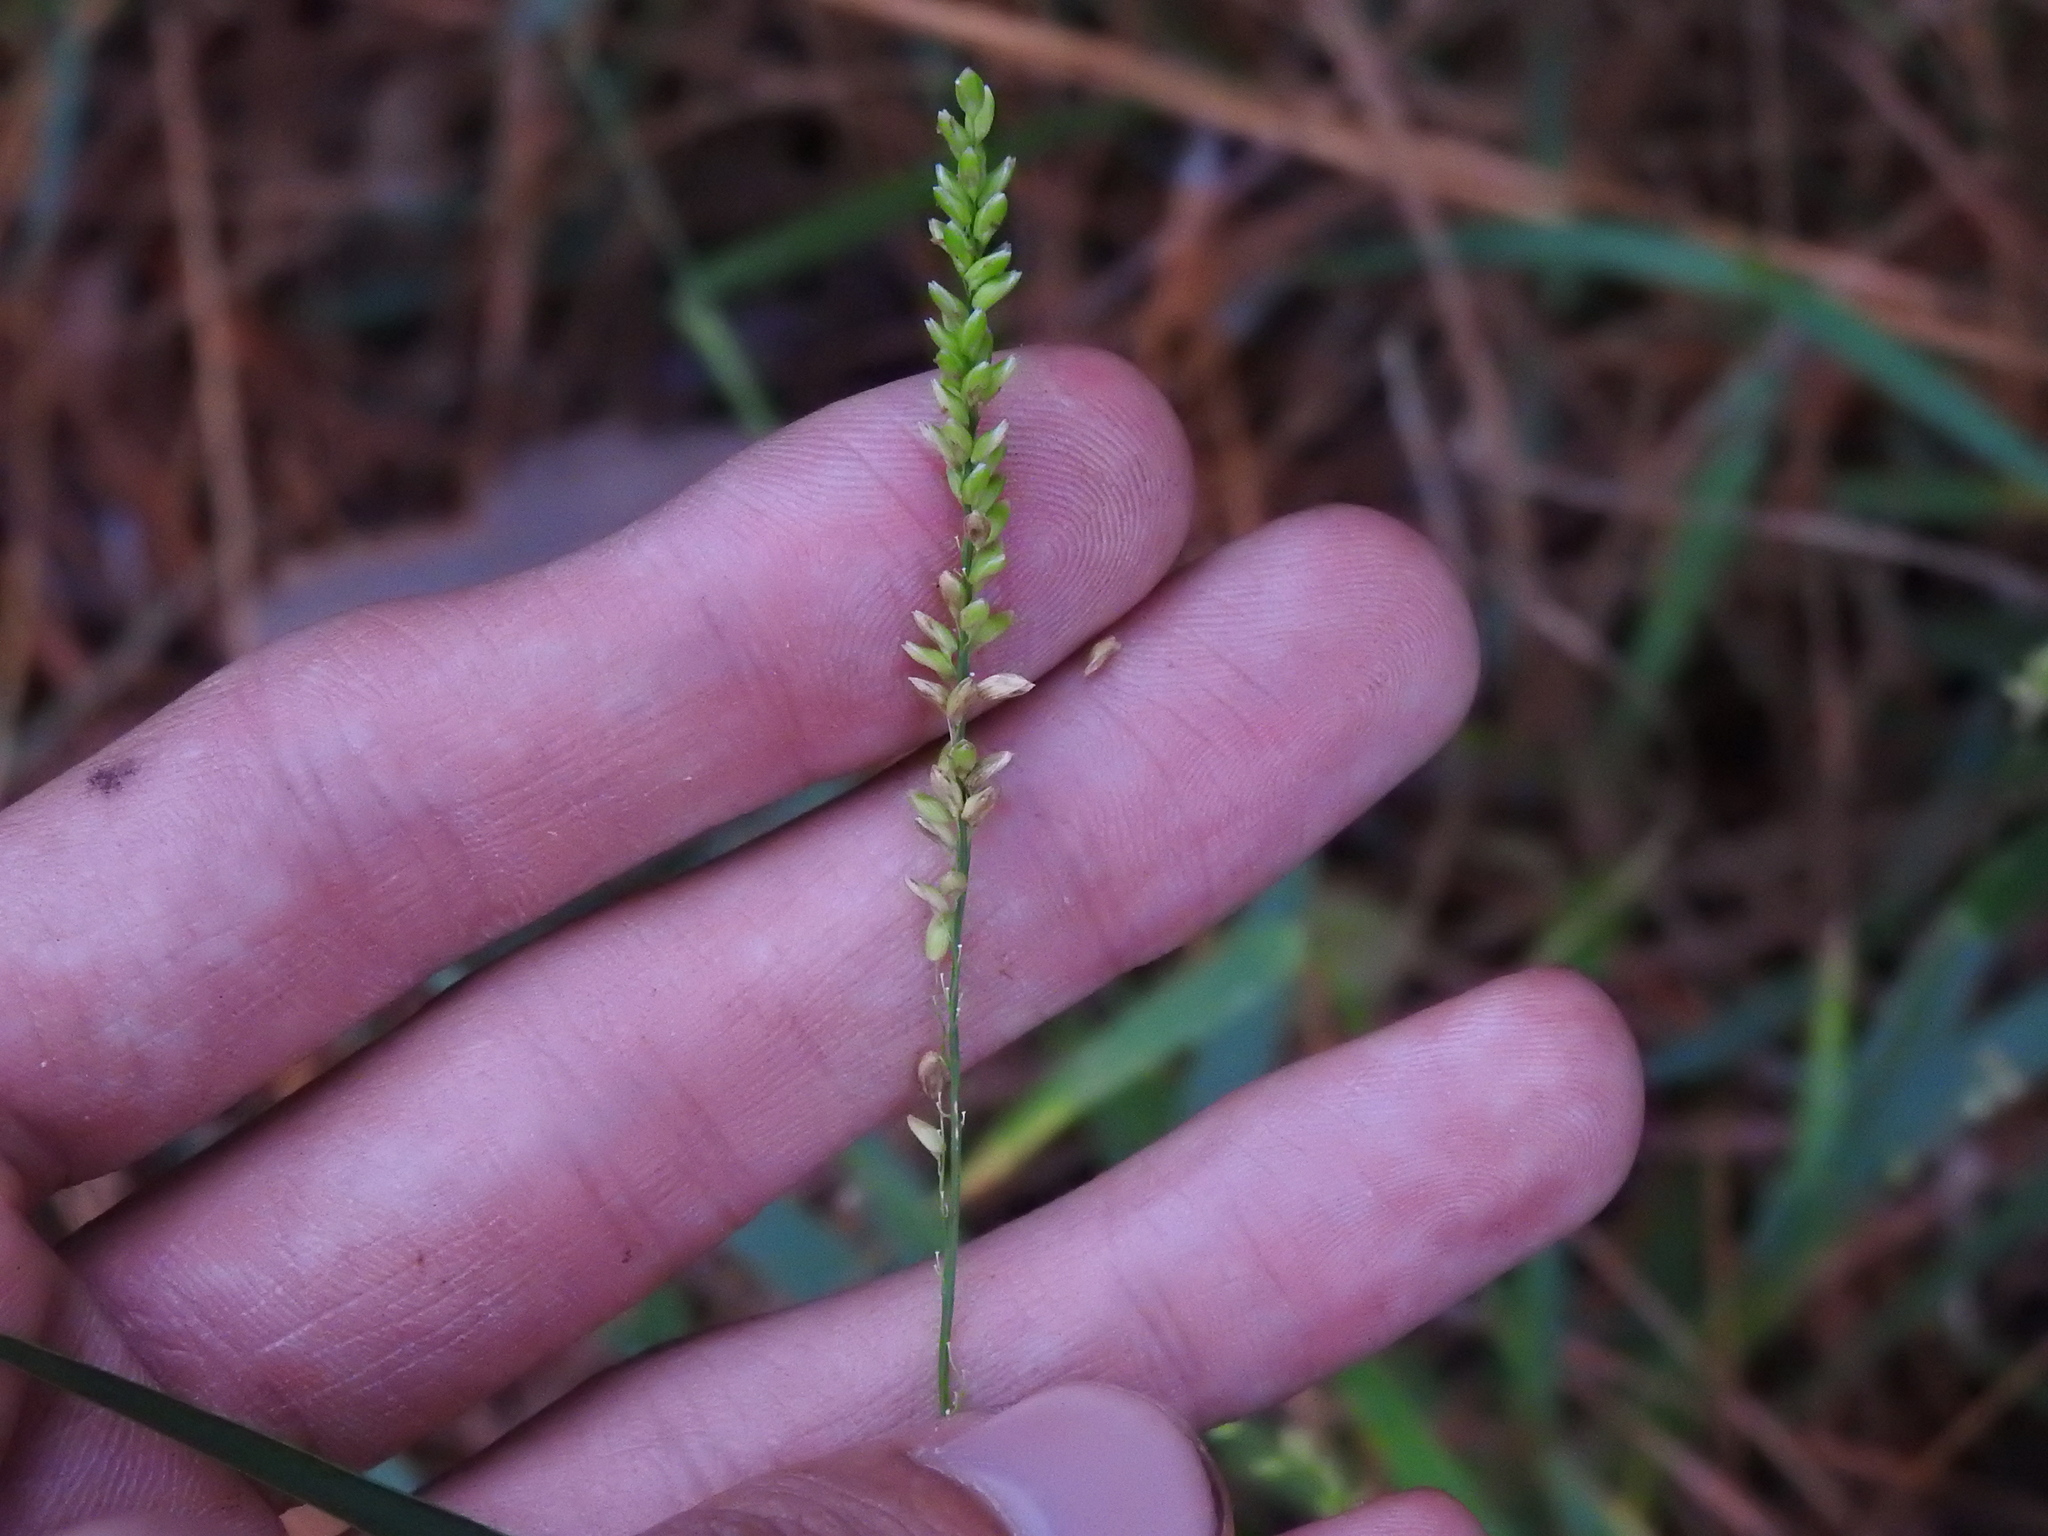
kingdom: Plantae
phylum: Tracheophyta
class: Liliopsida
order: Poales
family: Poaceae
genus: Sacciolepis
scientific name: Sacciolepis striata
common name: American cupscale
